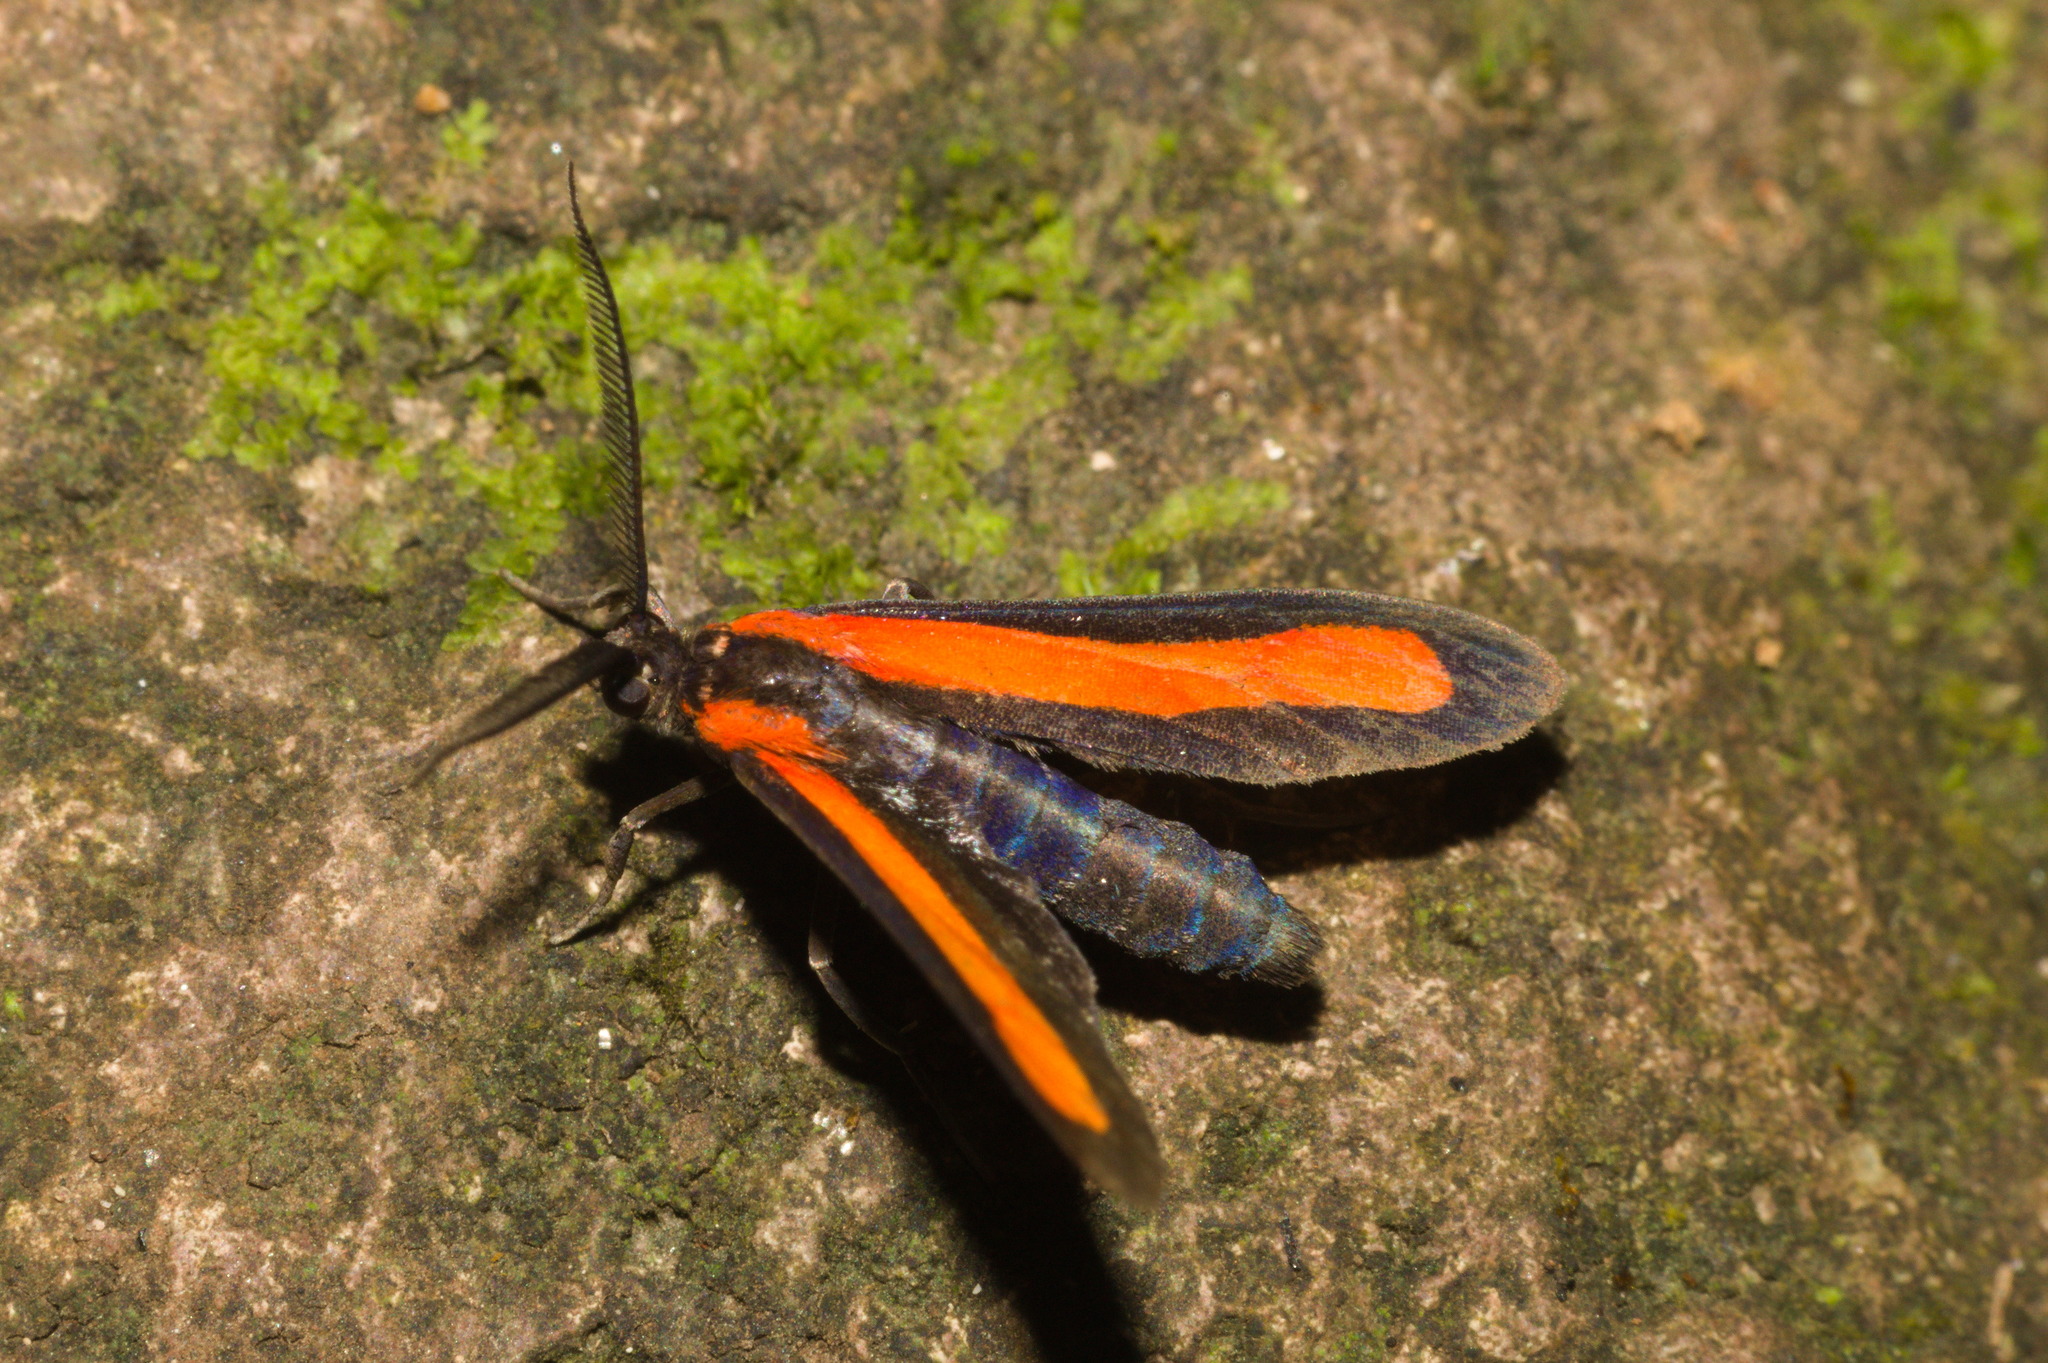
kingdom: Animalia
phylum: Arthropoda
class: Insecta
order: Lepidoptera
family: Erebidae
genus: Tipulodes
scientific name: Tipulodes ima
